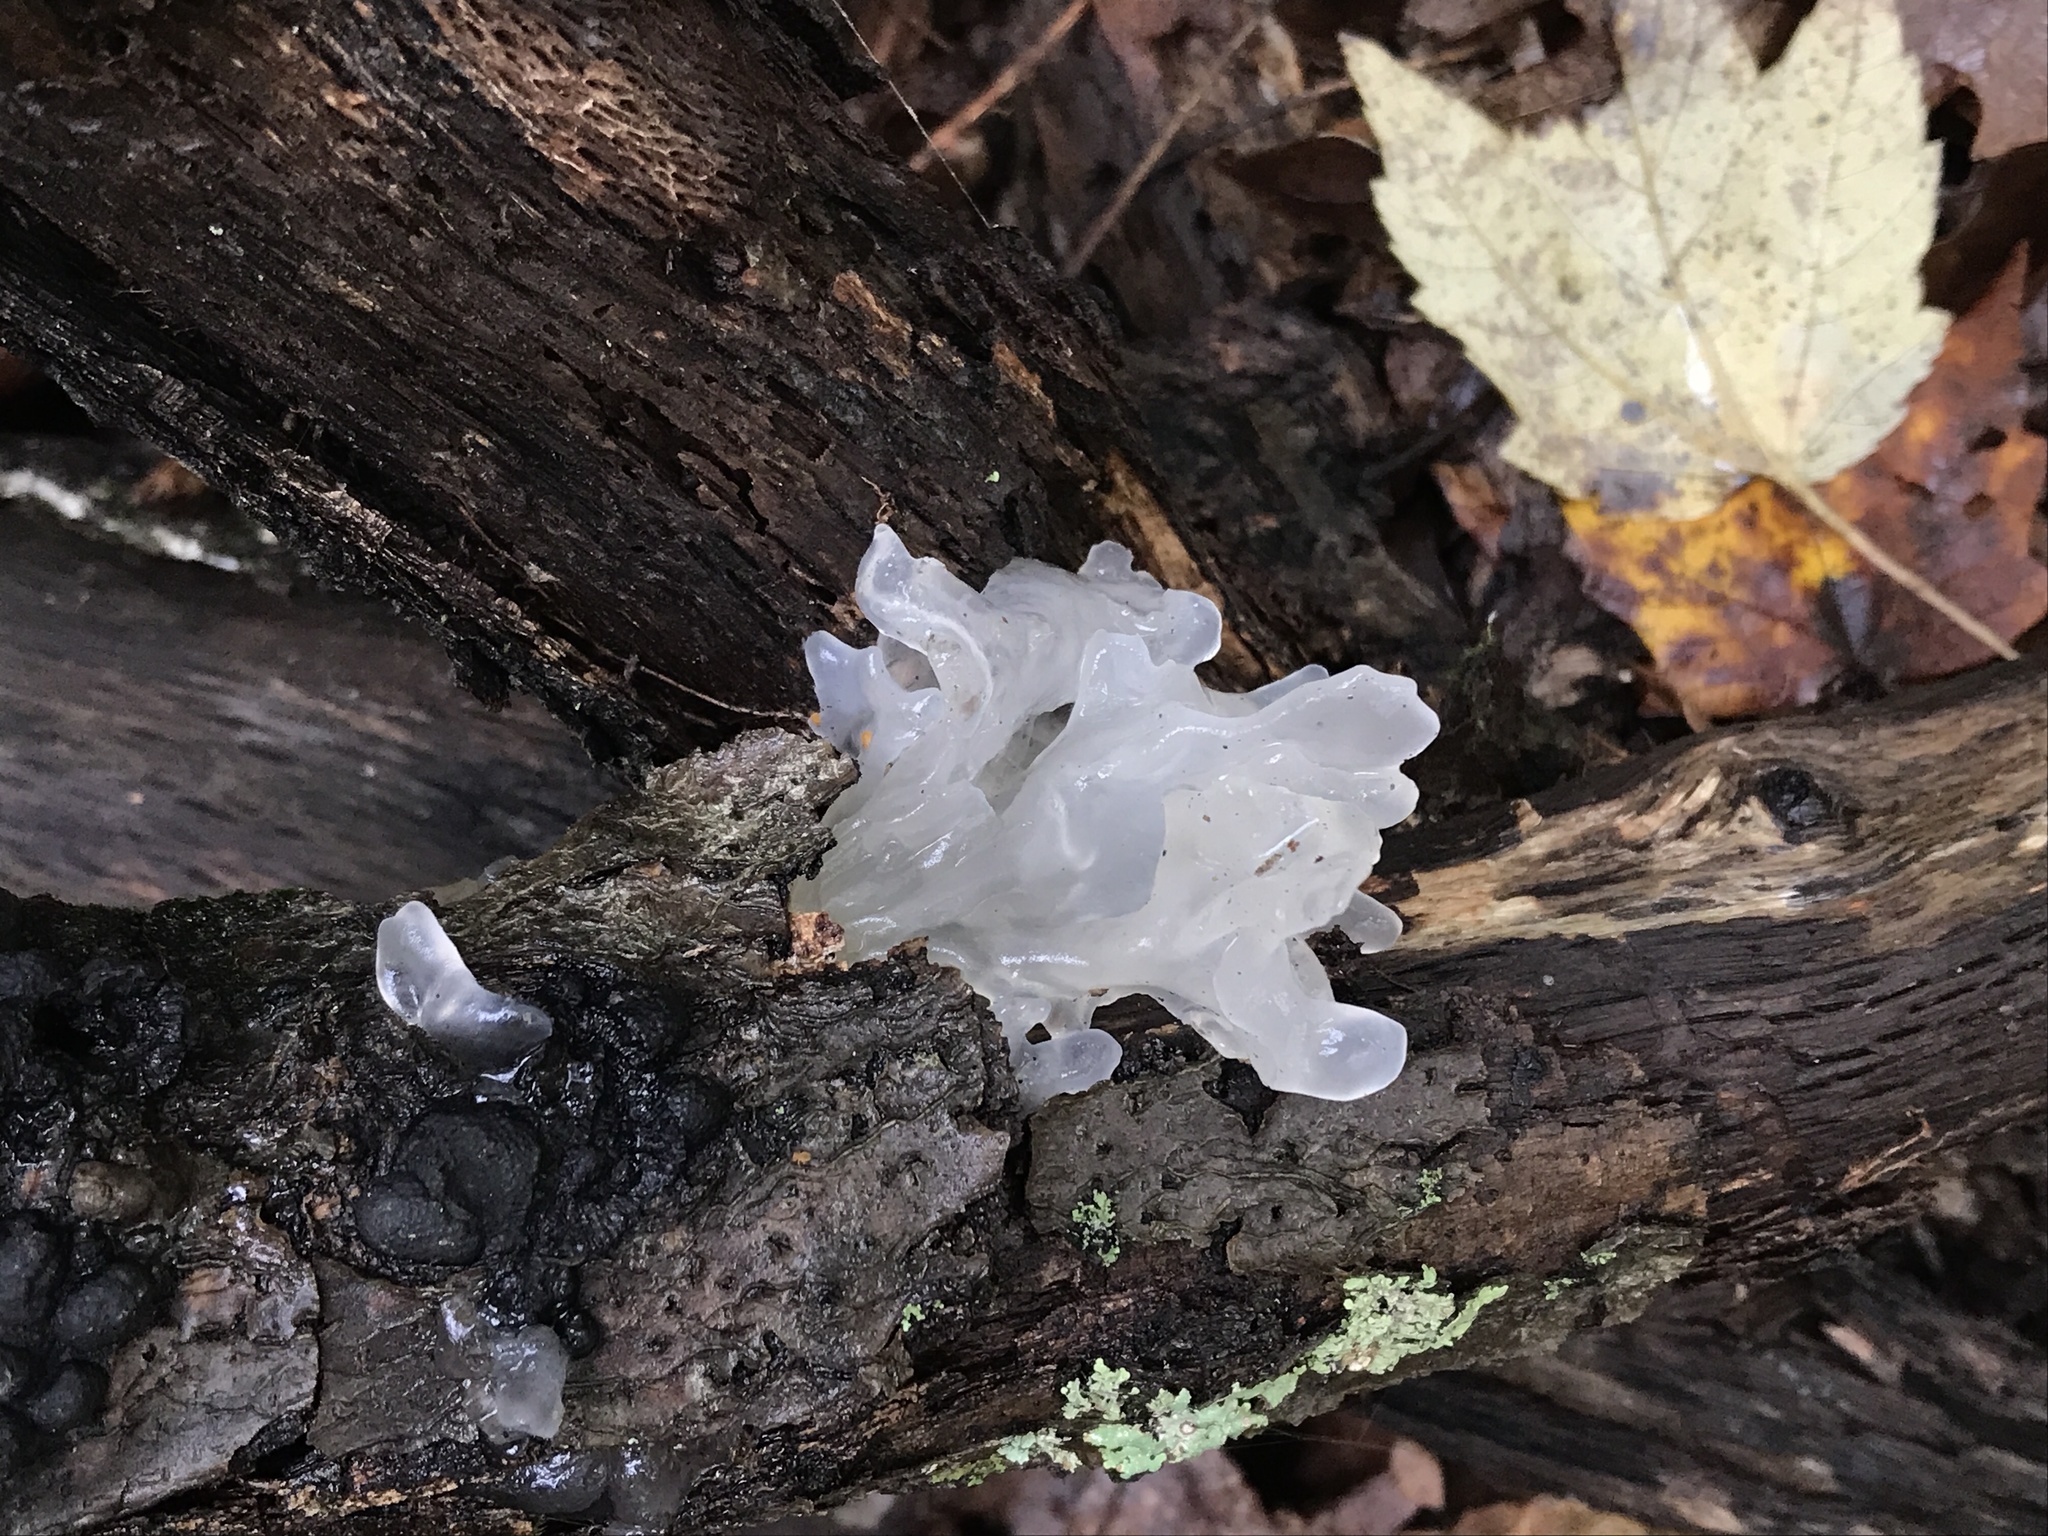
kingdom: Fungi
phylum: Basidiomycota
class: Tremellomycetes
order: Tremellales
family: Tremellaceae
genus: Tremella
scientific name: Tremella fuciformis
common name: Snow fungus
